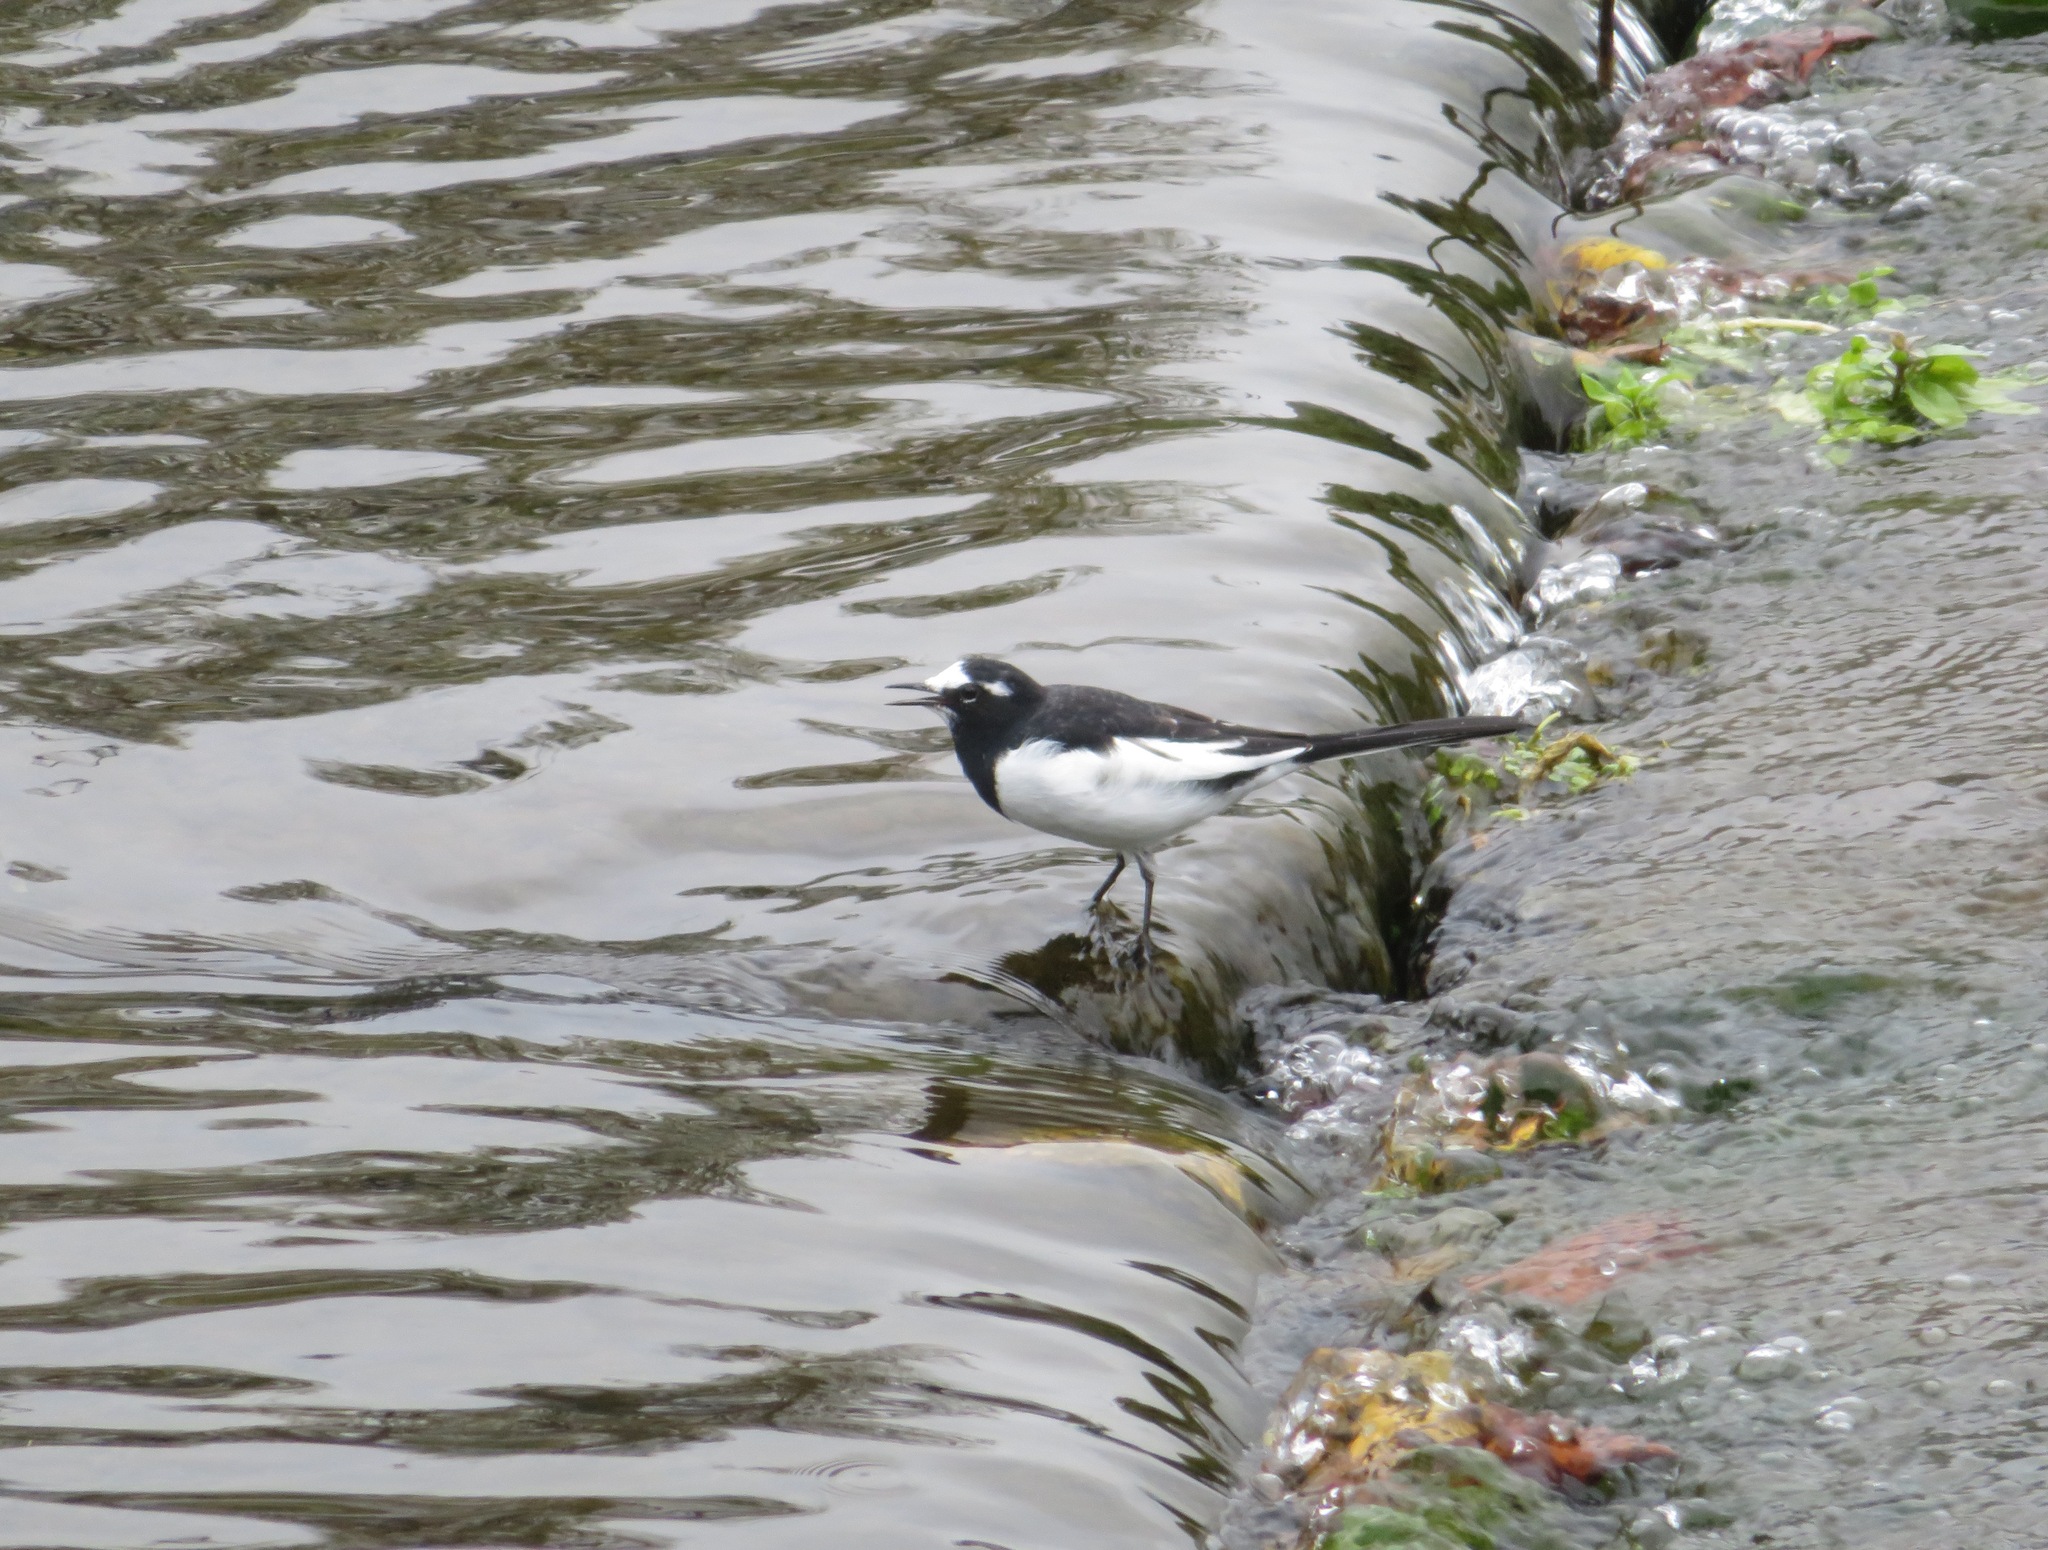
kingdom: Animalia
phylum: Chordata
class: Aves
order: Passeriformes
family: Motacillidae
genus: Motacilla
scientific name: Motacilla grandis
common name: Japanese wagtail
